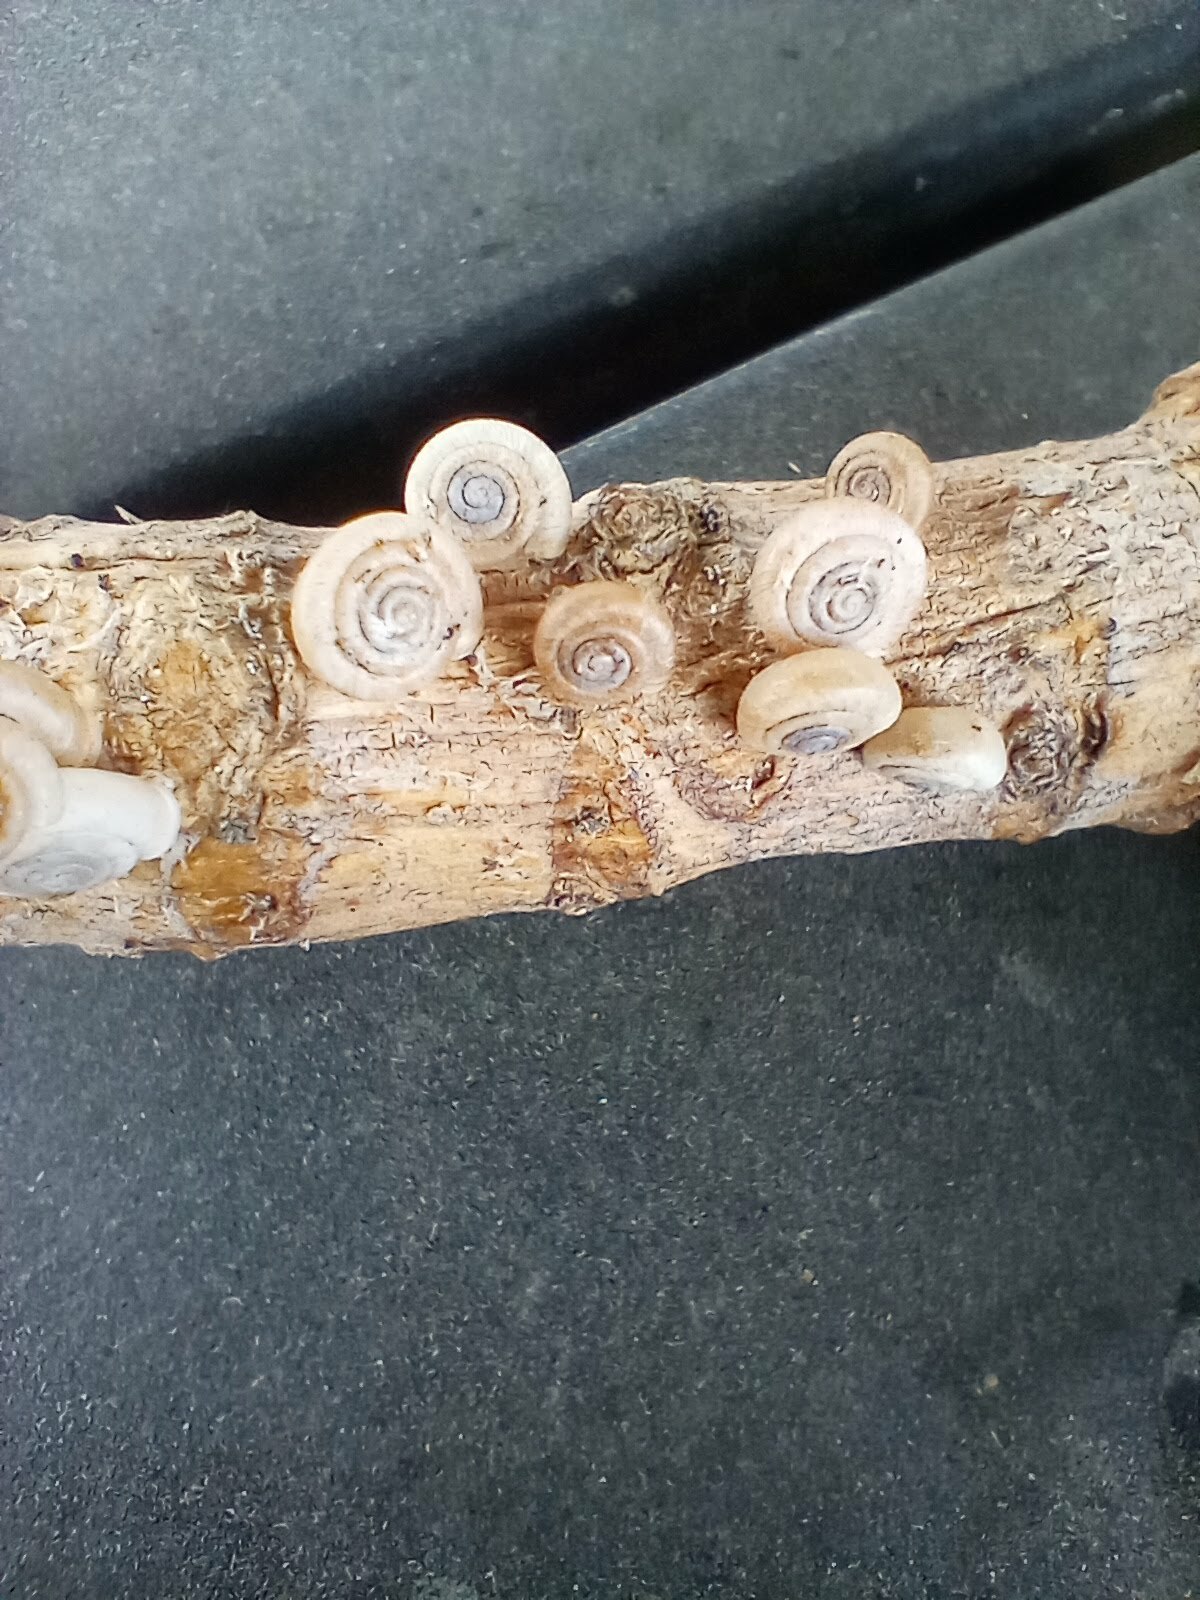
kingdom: Animalia
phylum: Mollusca
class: Gastropoda
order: Stylommatophora
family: Polygyridae
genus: Polygyra
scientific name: Polygyra cereolus
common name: Southern flatcone snail
